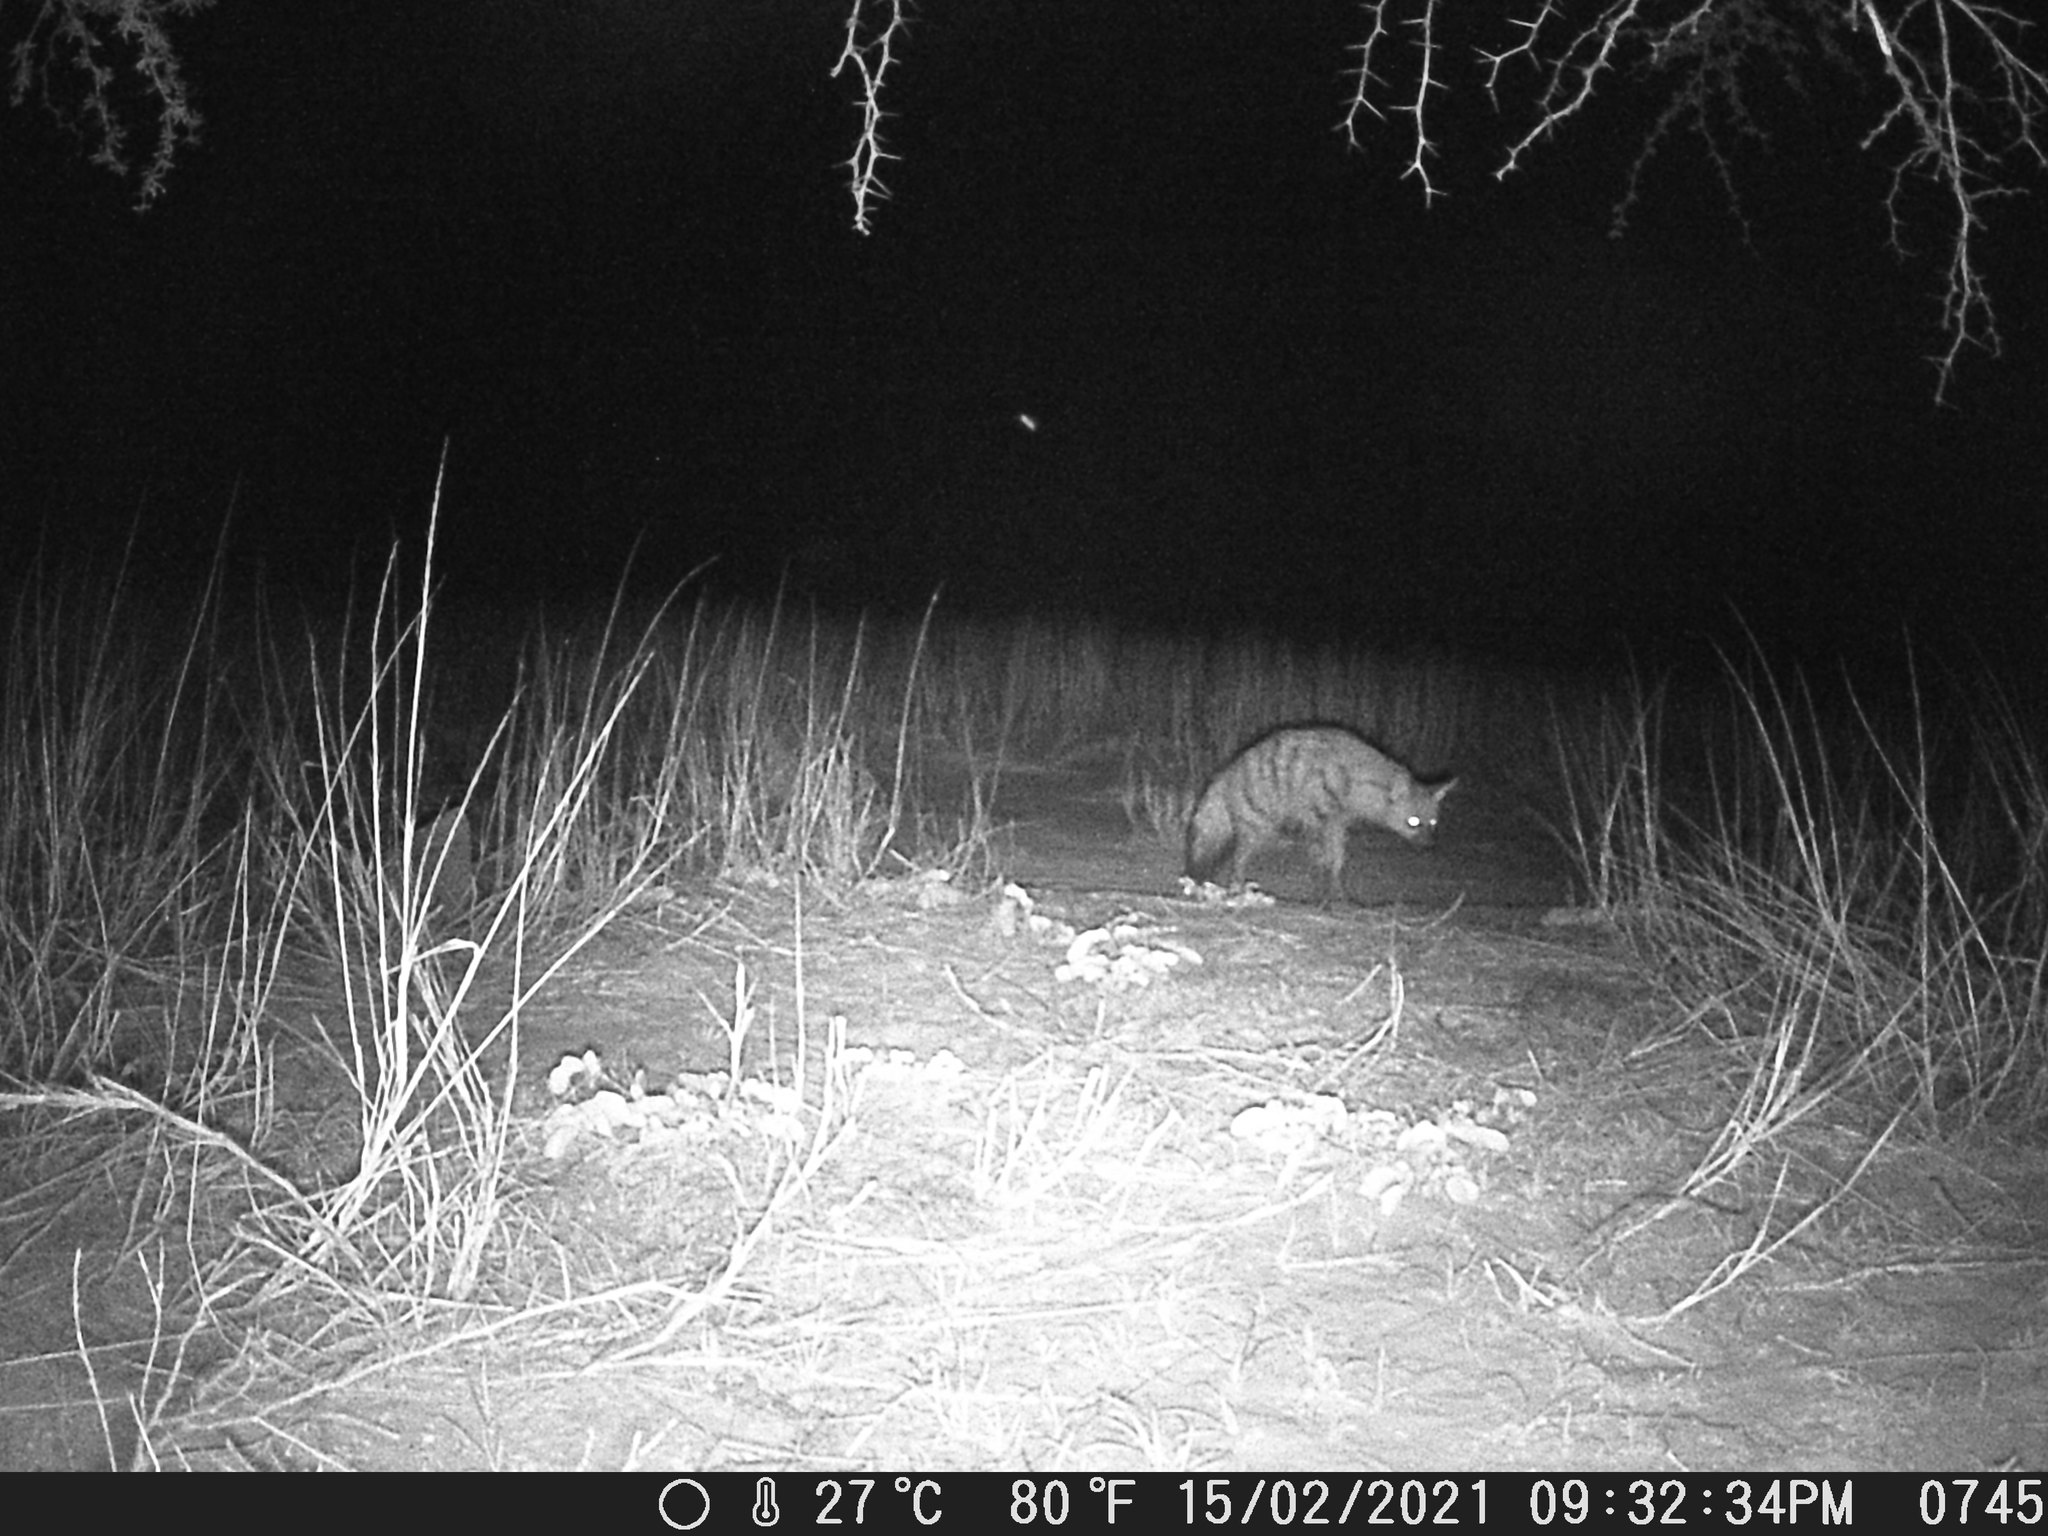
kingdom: Animalia
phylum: Chordata
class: Mammalia
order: Carnivora
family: Hyaenidae
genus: Proteles
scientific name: Proteles cristata
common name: Aardwolf
